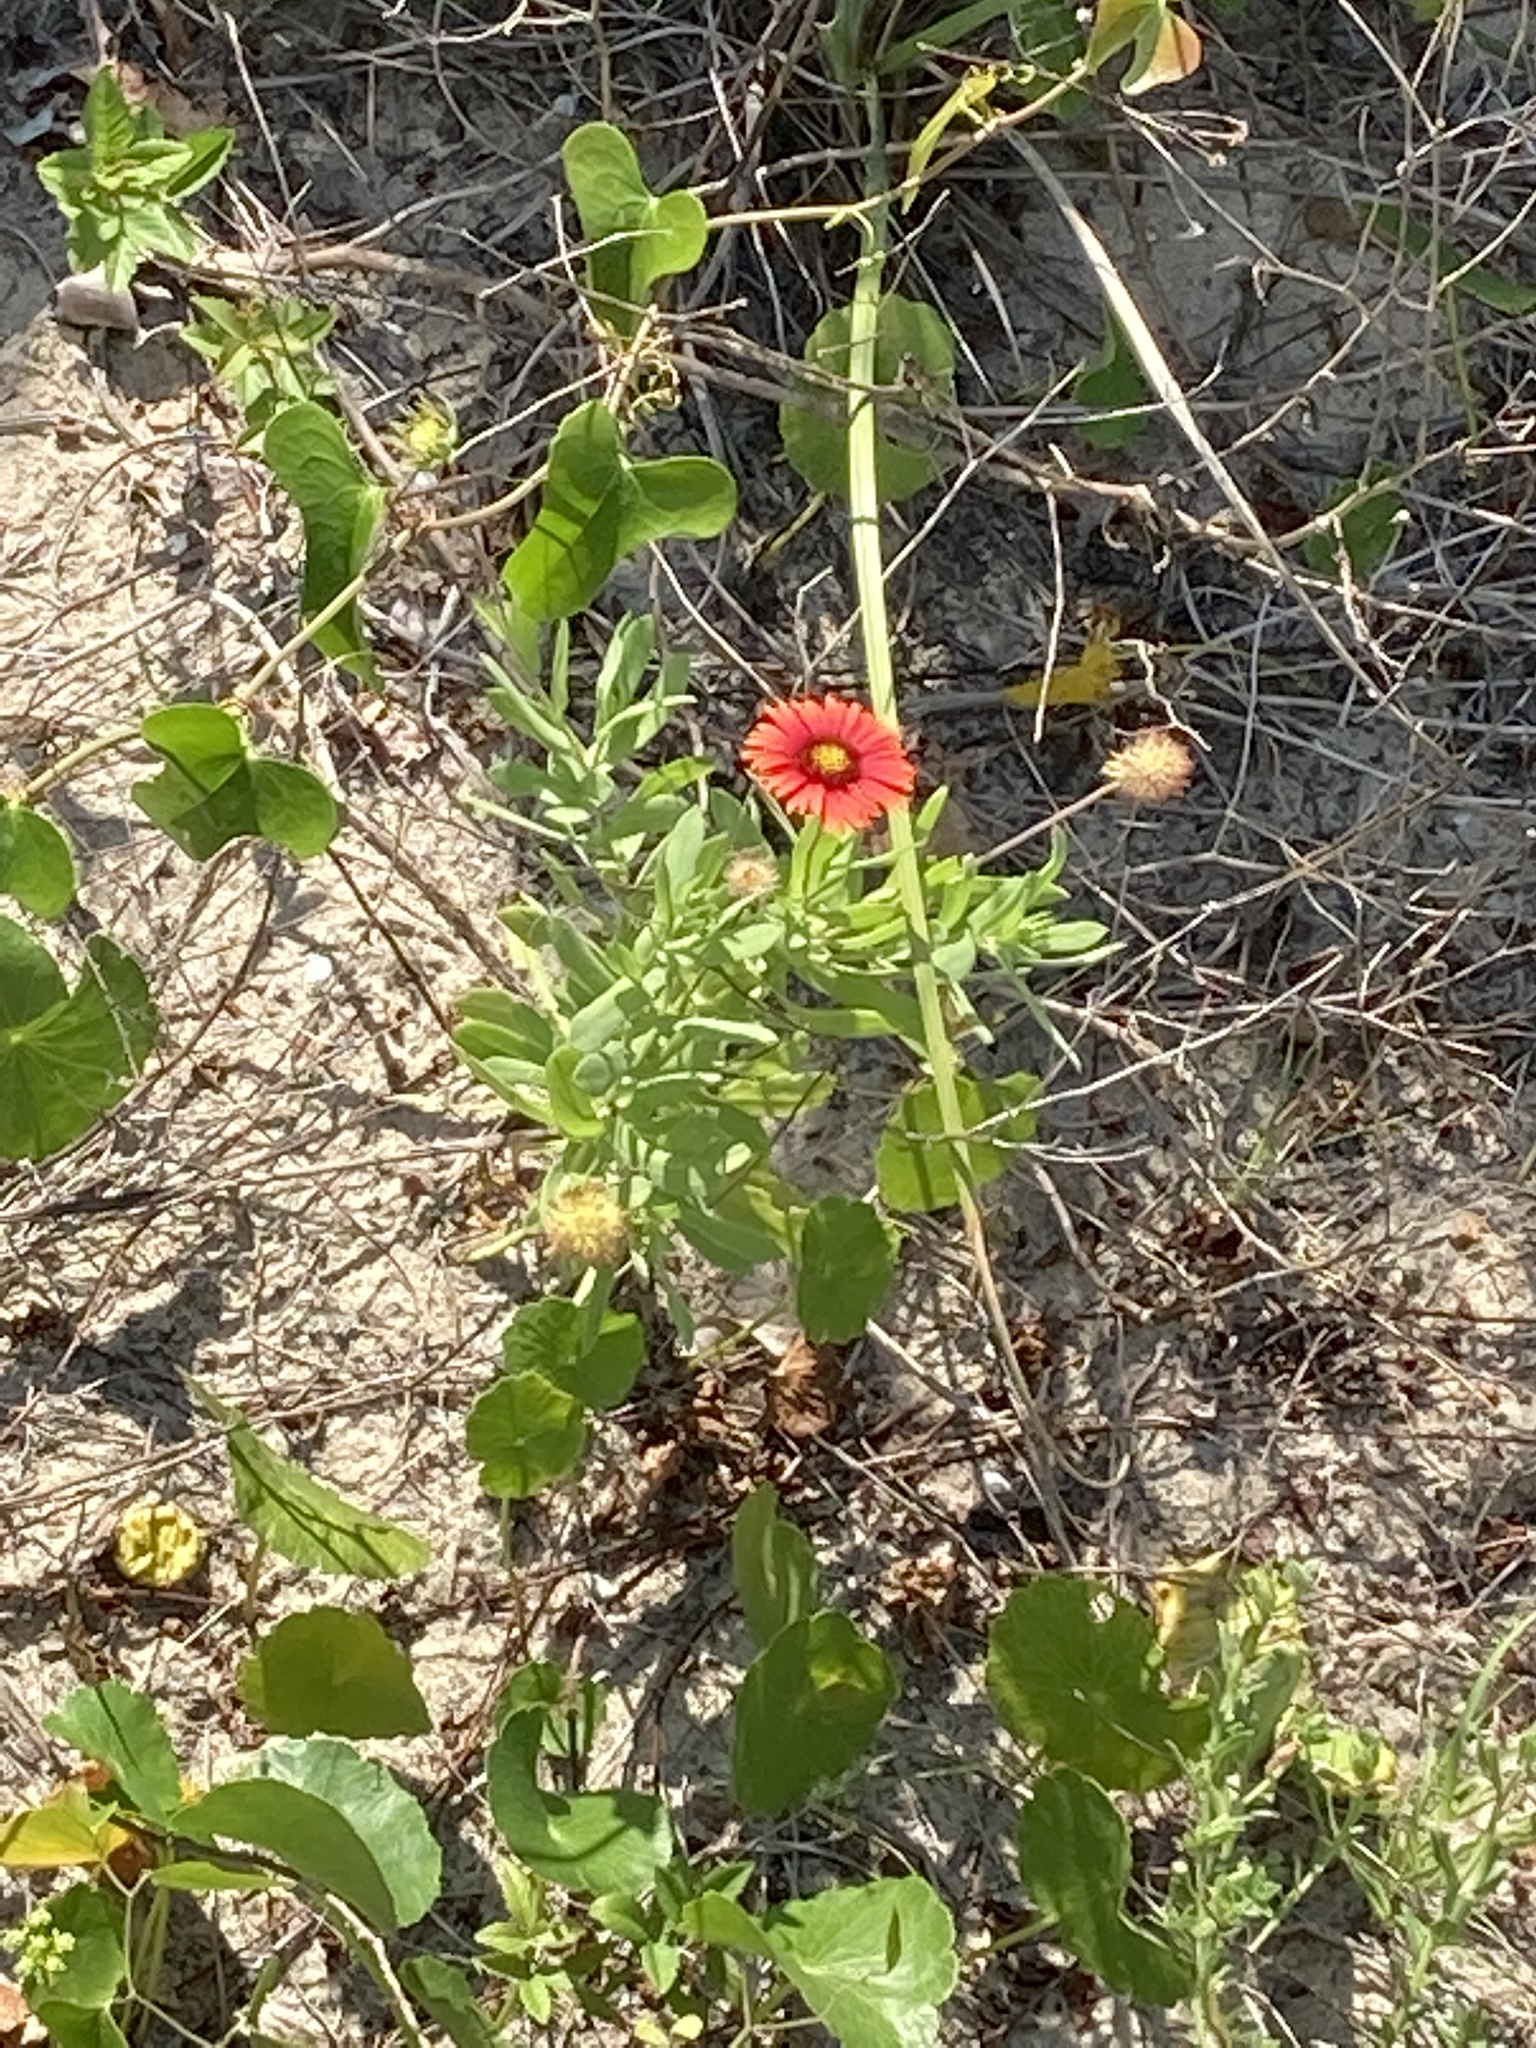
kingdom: Plantae
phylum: Tracheophyta
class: Magnoliopsida
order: Asterales
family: Asteraceae
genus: Gaillardia
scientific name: Gaillardia pulchella
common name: Firewheel
